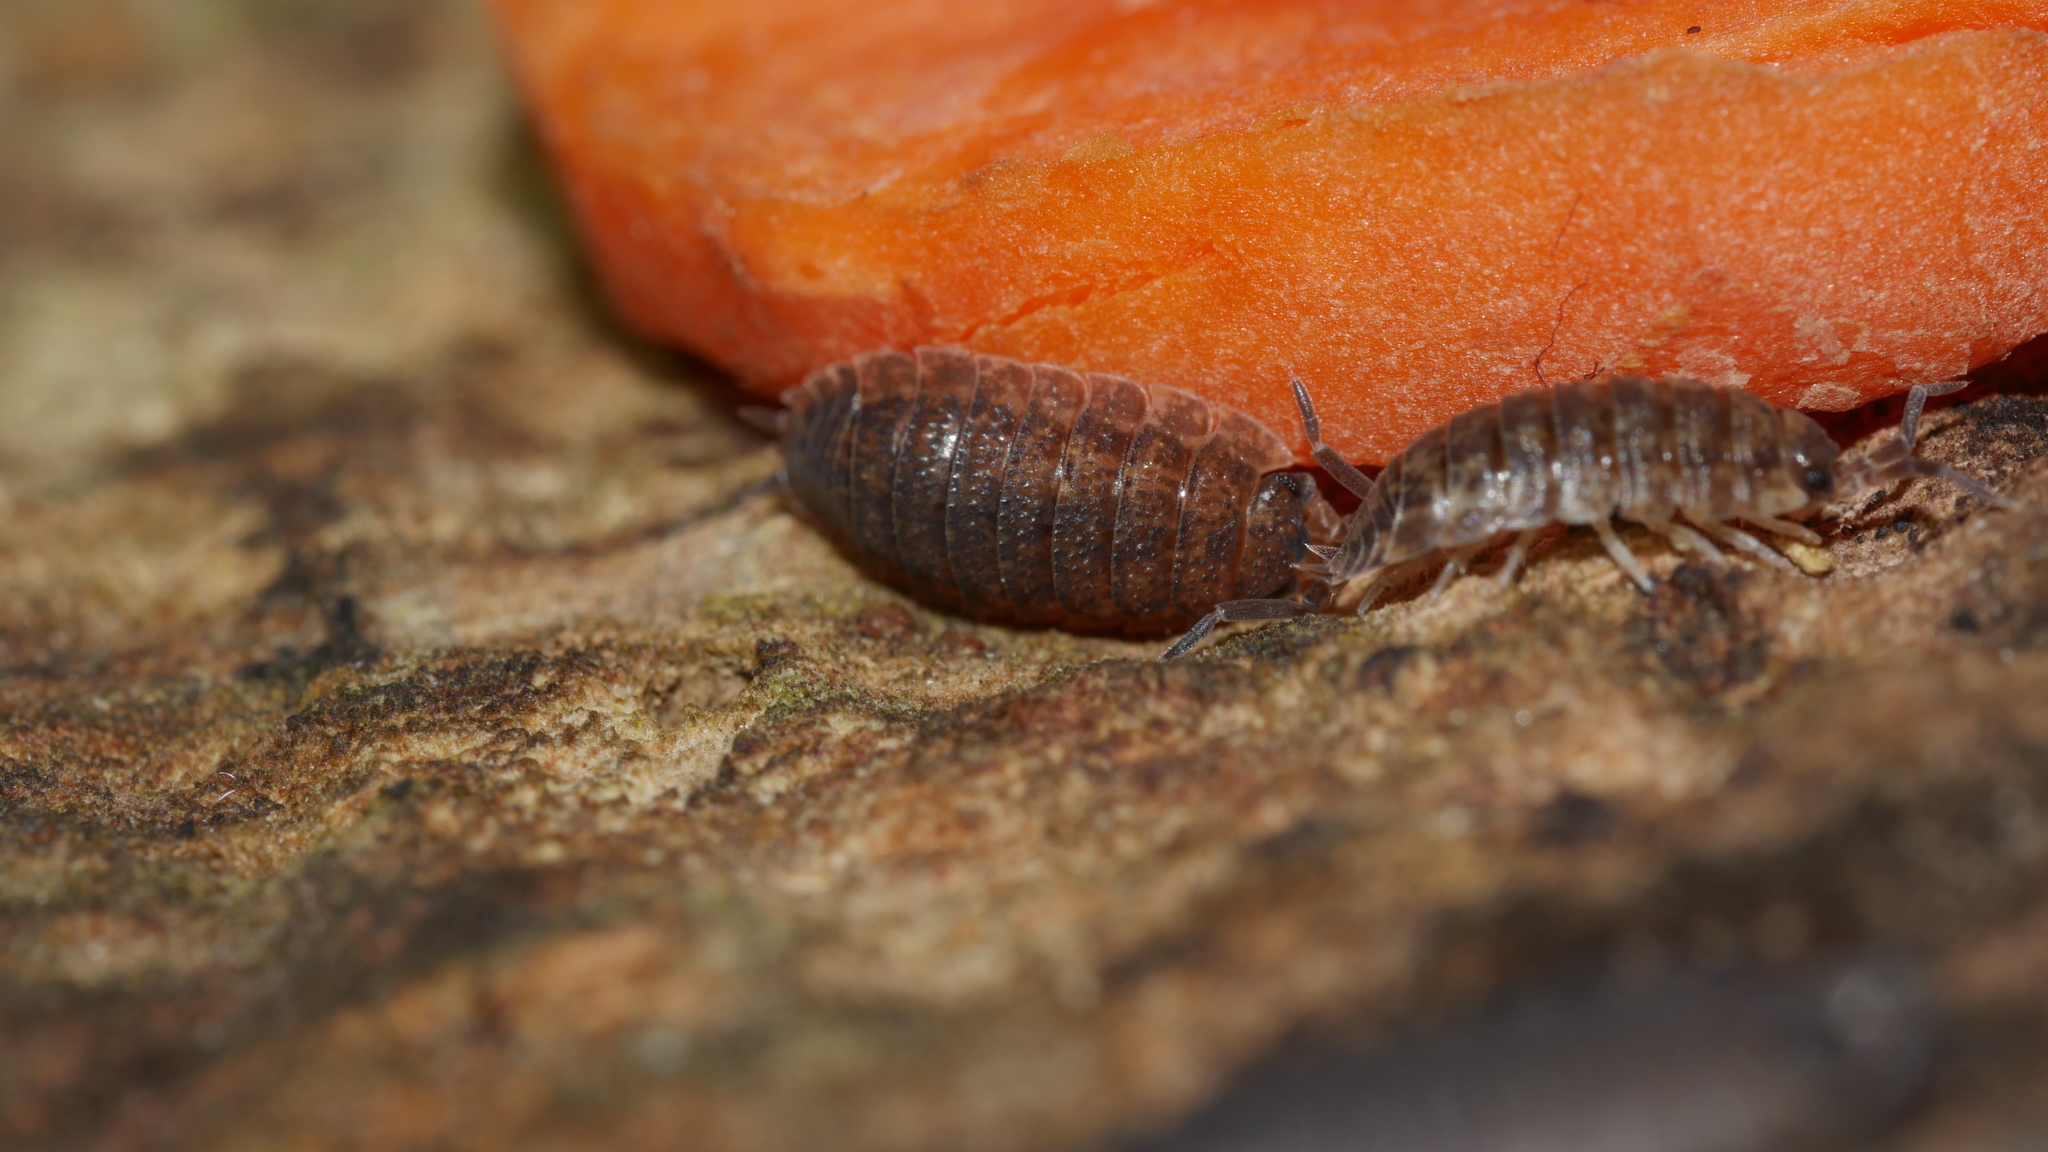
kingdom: Animalia
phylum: Arthropoda
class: Malacostraca
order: Isopoda
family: Porcellionidae
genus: Porcellio
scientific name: Porcellio scaber
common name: Common rough woodlouse
